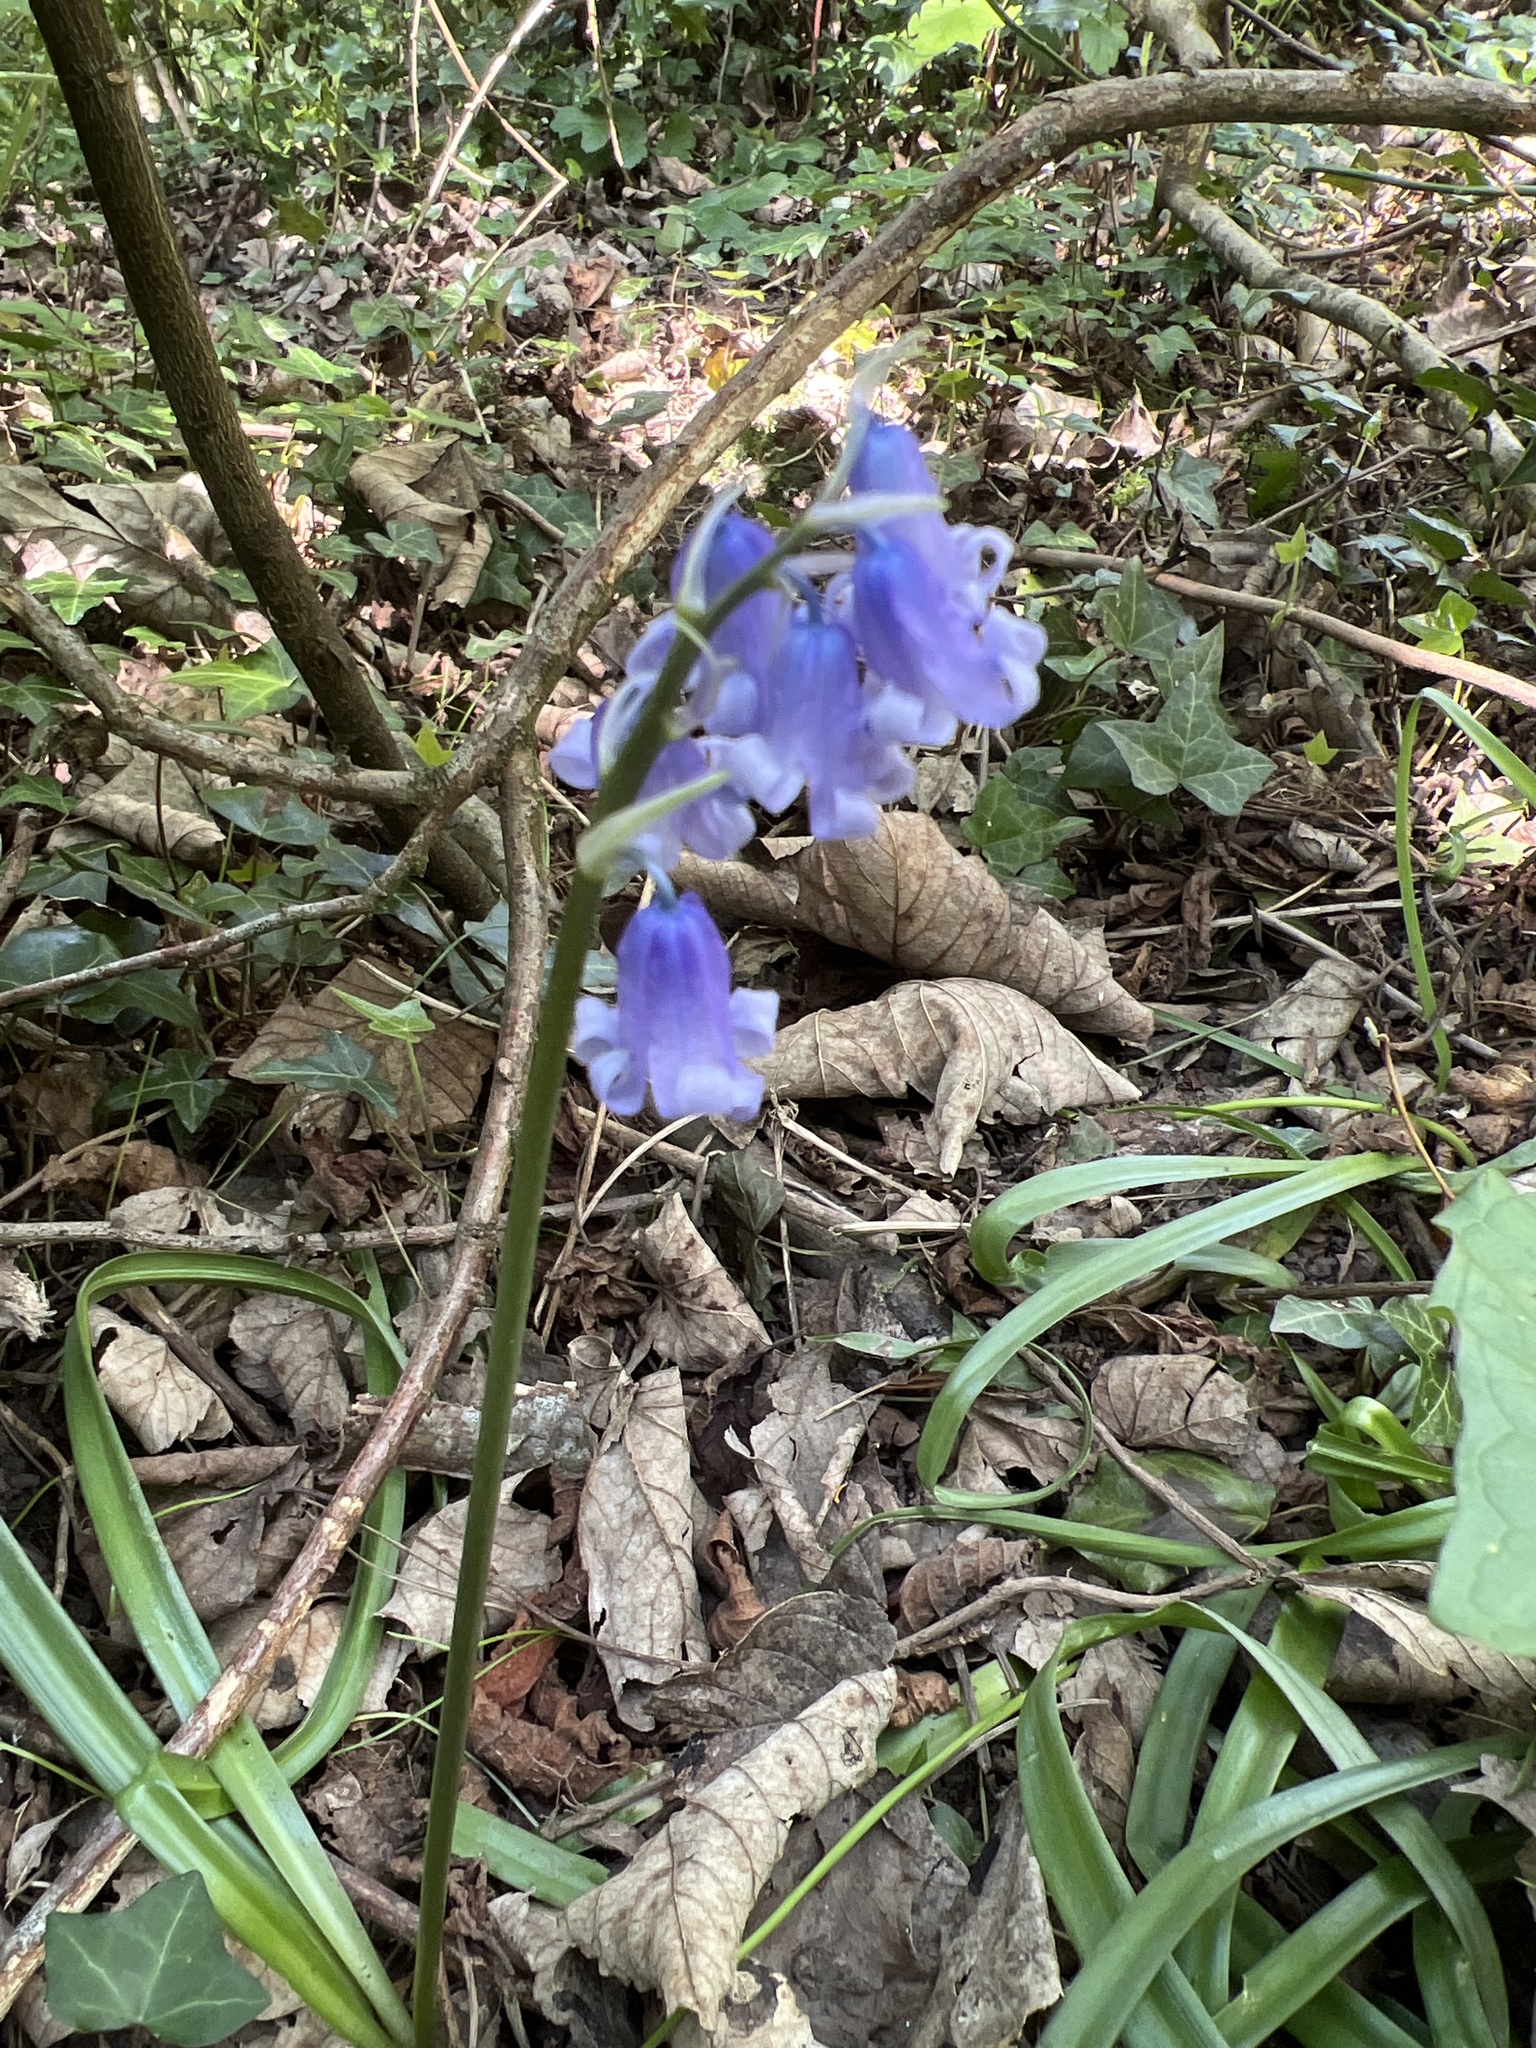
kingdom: Plantae
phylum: Tracheophyta
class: Liliopsida
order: Asparagales
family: Asparagaceae
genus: Hyacinthoides
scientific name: Hyacinthoides massartiana
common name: Hyacinthoides
